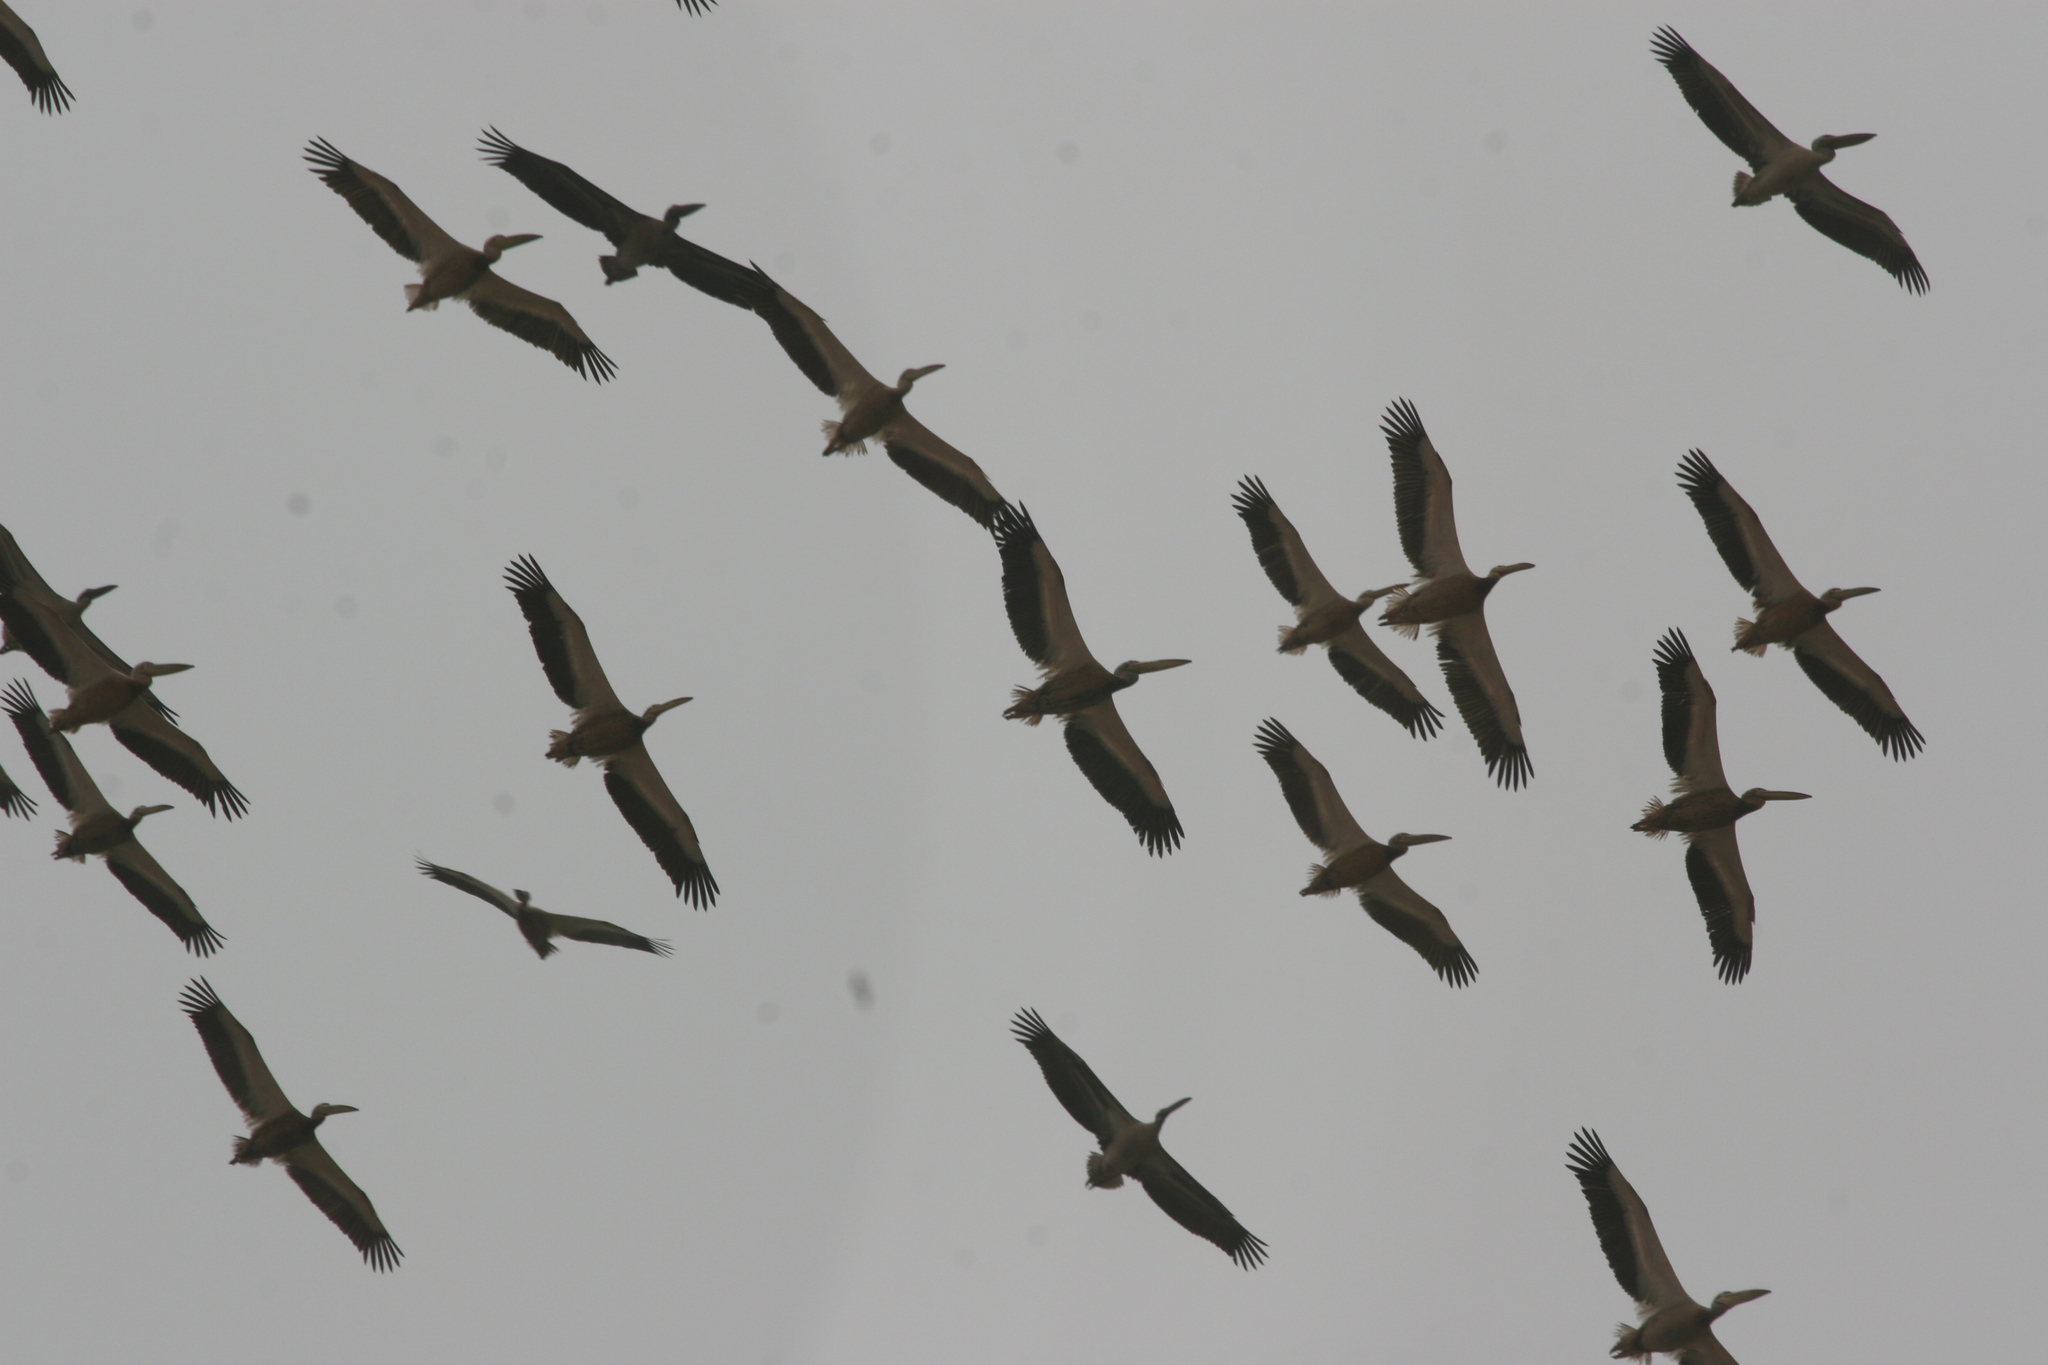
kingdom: Animalia
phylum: Chordata
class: Aves
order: Pelecaniformes
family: Pelecanidae
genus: Pelecanus
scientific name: Pelecanus onocrotalus
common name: Great white pelican
